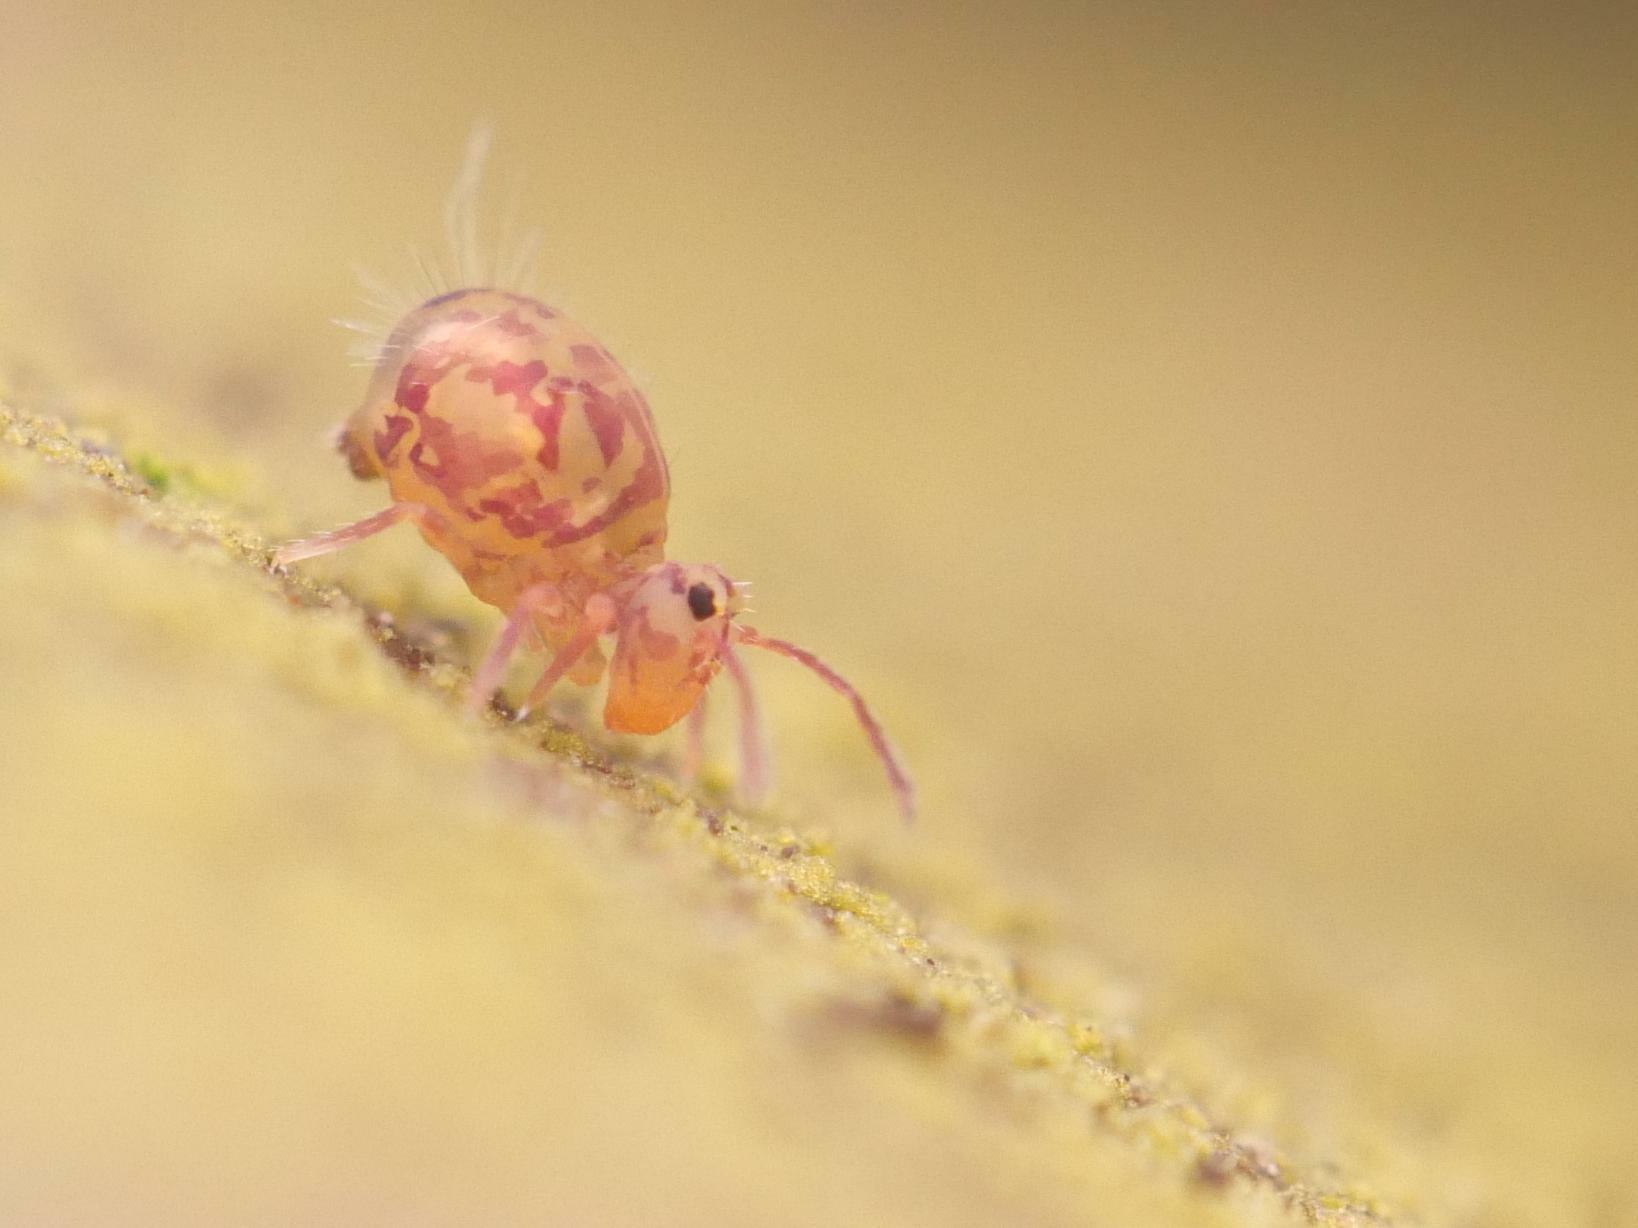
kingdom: Animalia
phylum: Arthropoda
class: Collembola
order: Symphypleona
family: Dicyrtomidae
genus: Dicyrtomina
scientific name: Dicyrtomina ornata
